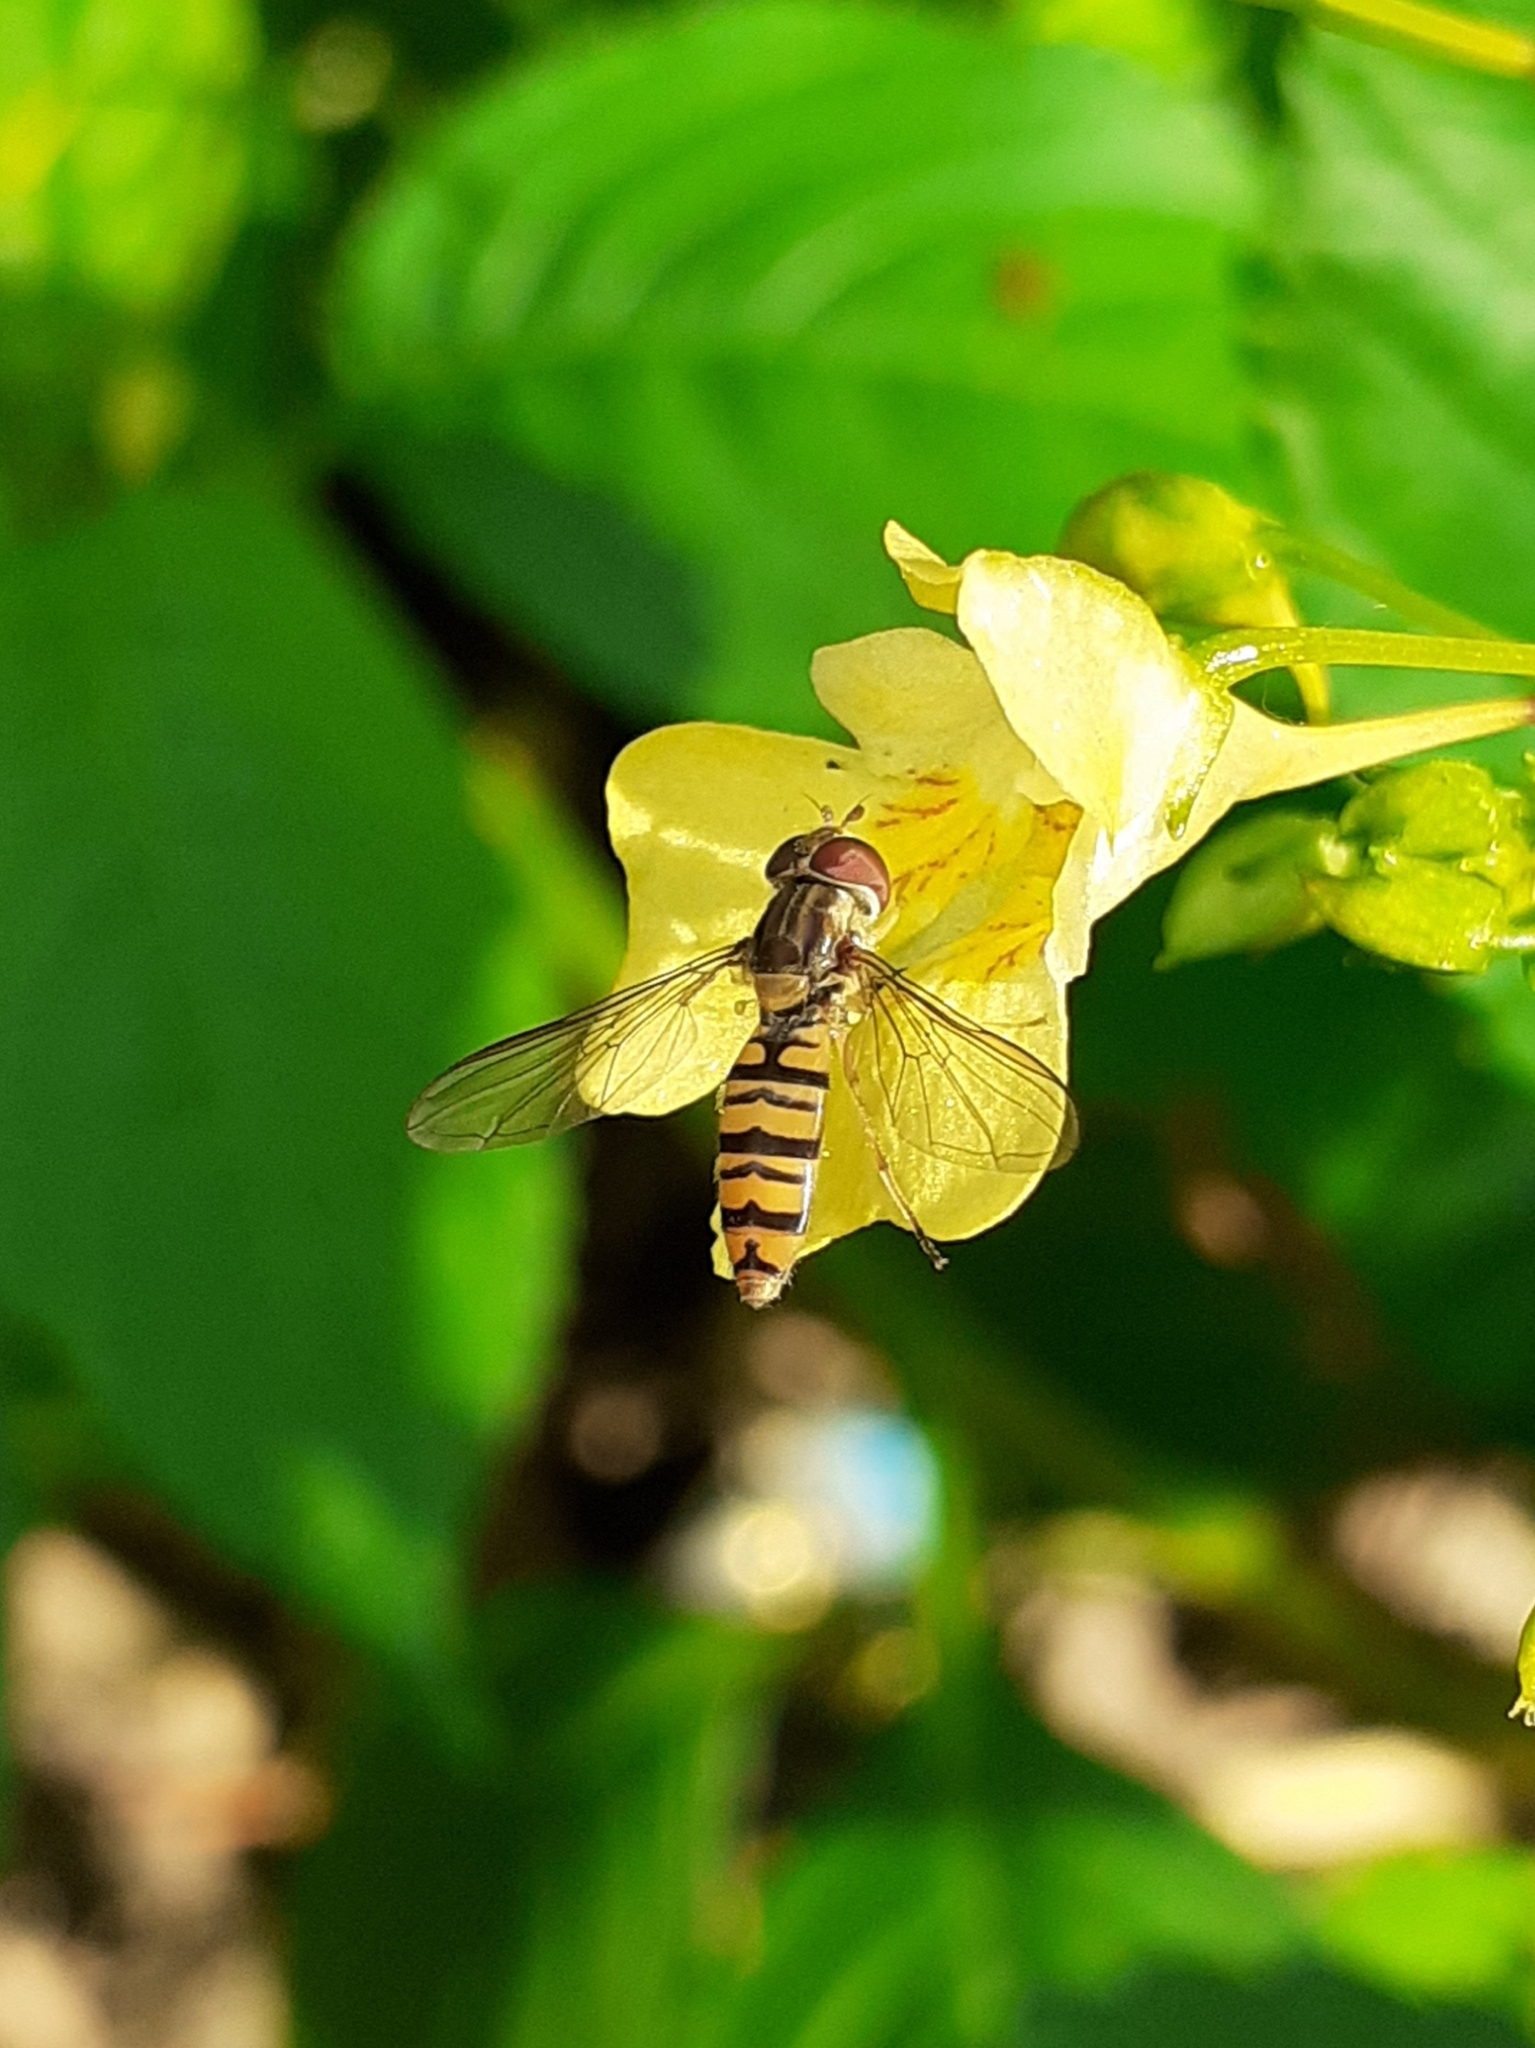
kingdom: Animalia
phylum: Arthropoda
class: Insecta
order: Diptera
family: Syrphidae
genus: Episyrphus
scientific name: Episyrphus balteatus
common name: Marmalade hoverfly
